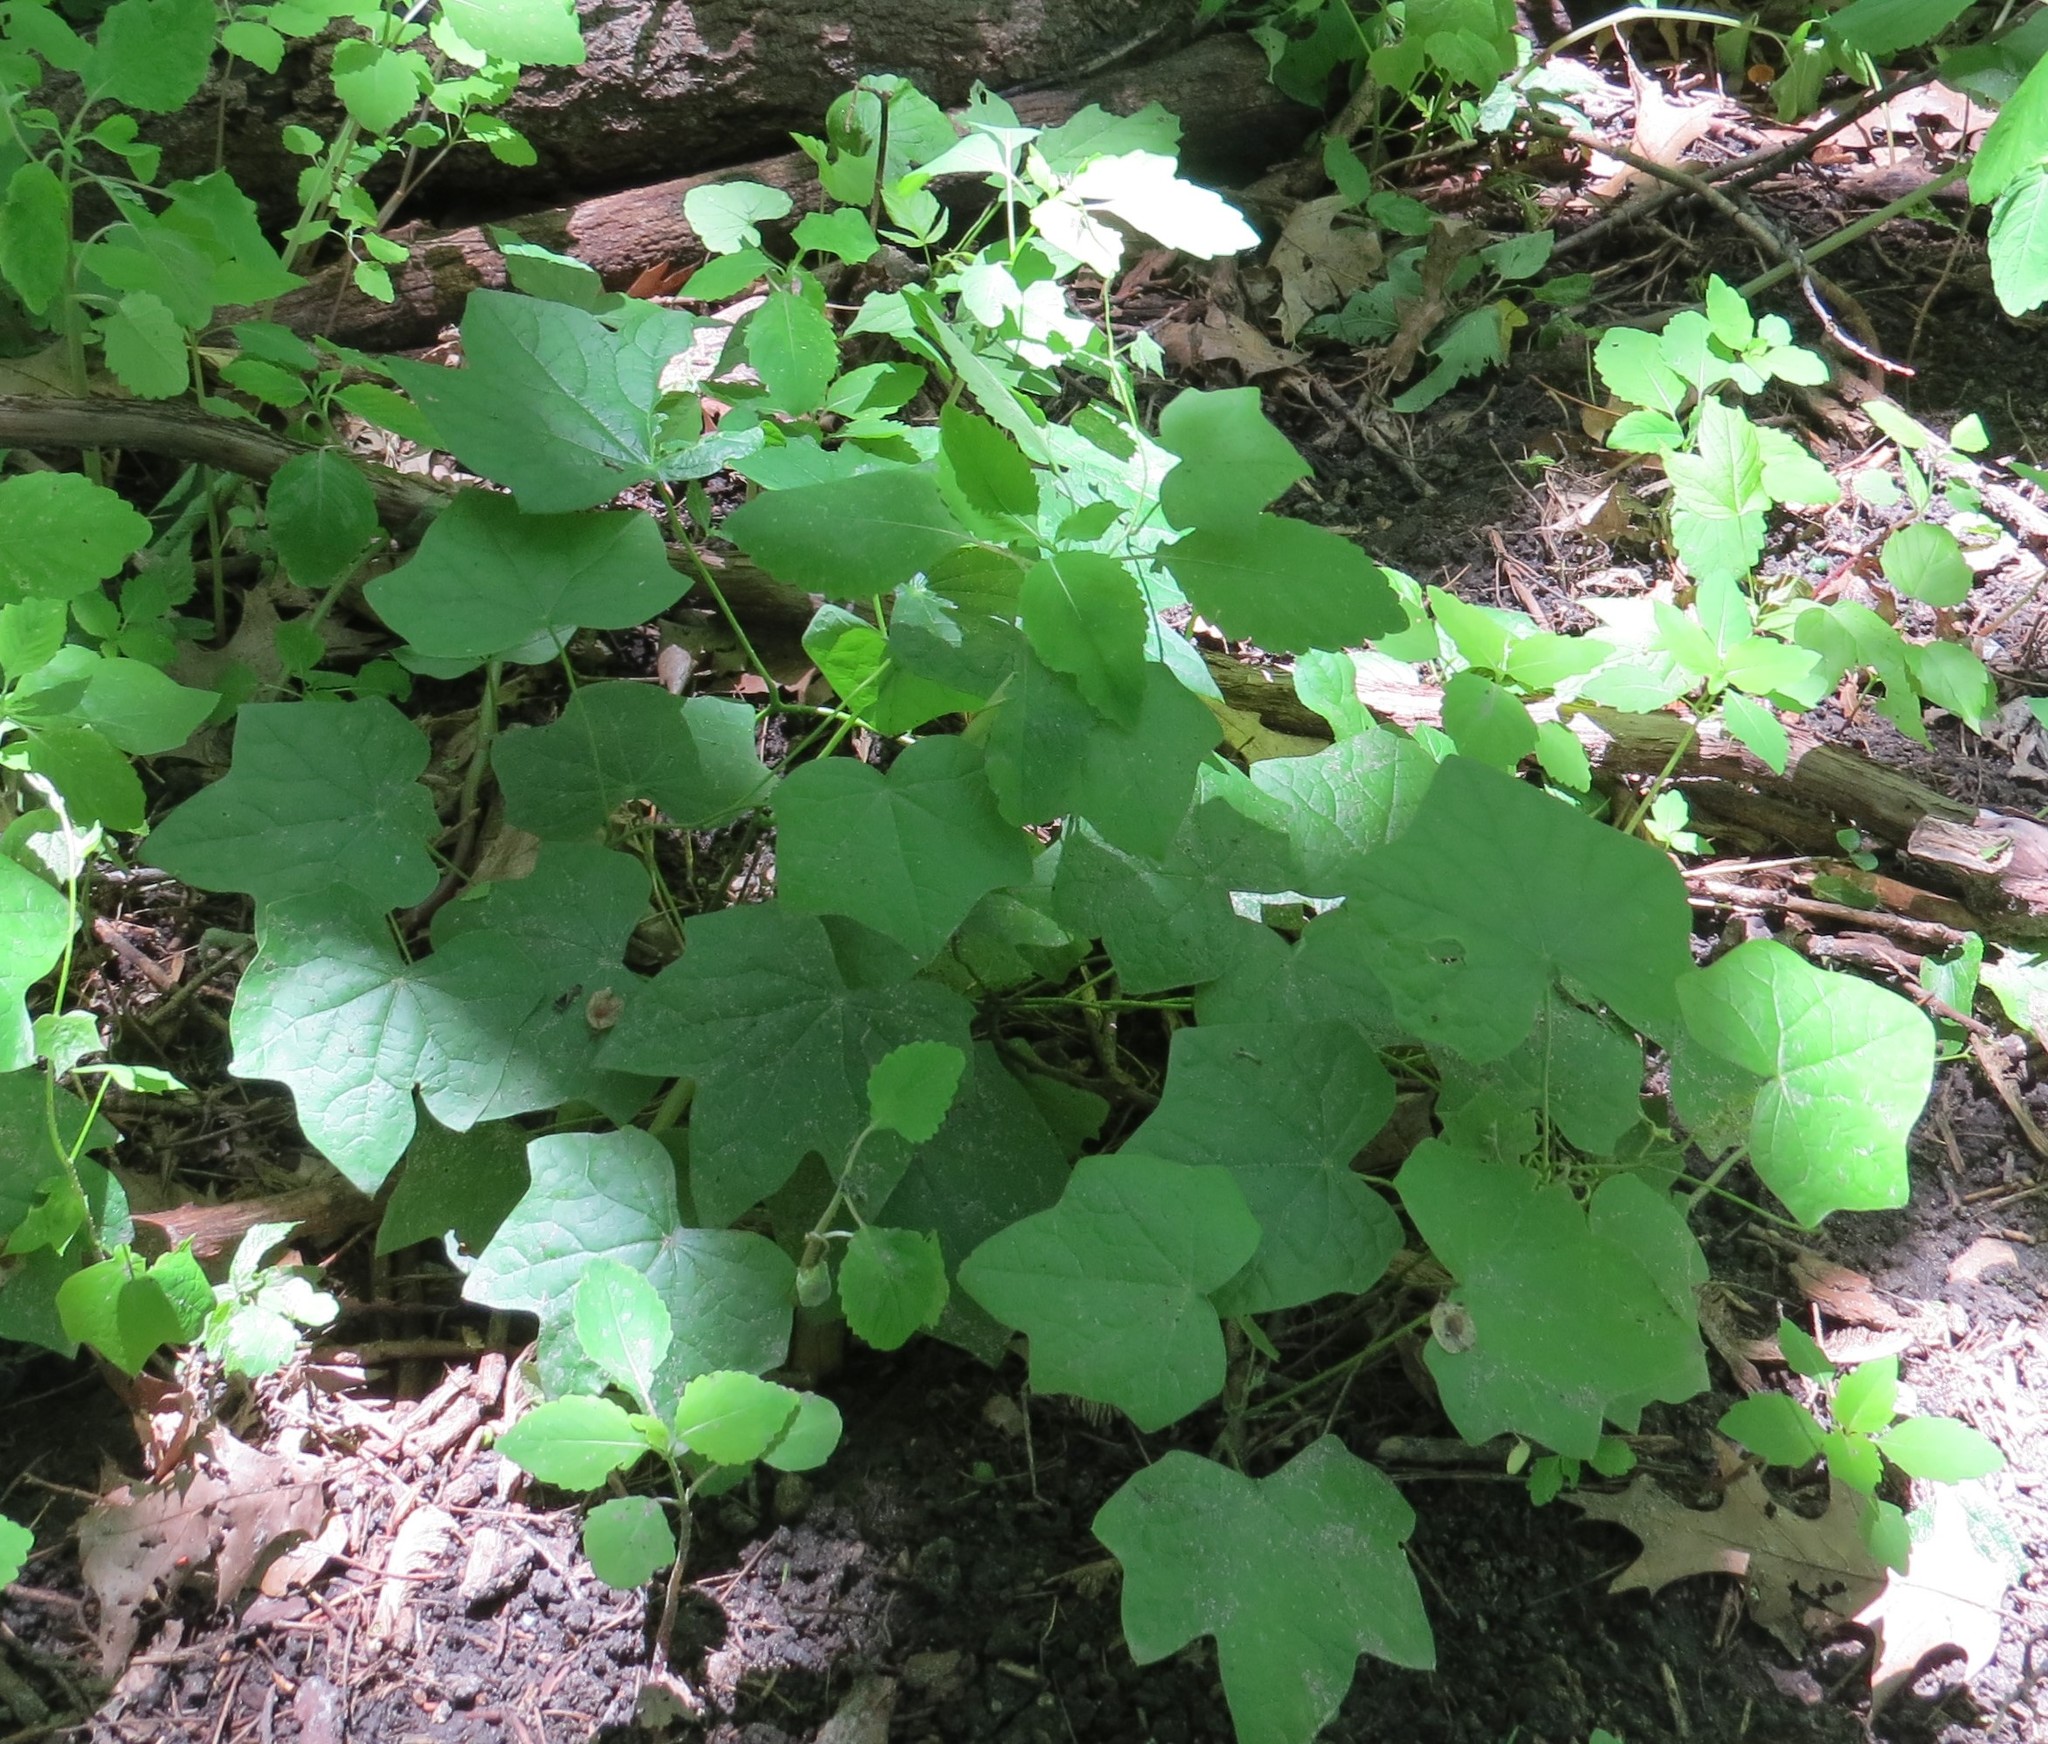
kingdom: Plantae
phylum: Tracheophyta
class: Magnoliopsida
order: Ranunculales
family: Menispermaceae
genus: Menispermum
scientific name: Menispermum canadense
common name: Moonseed
